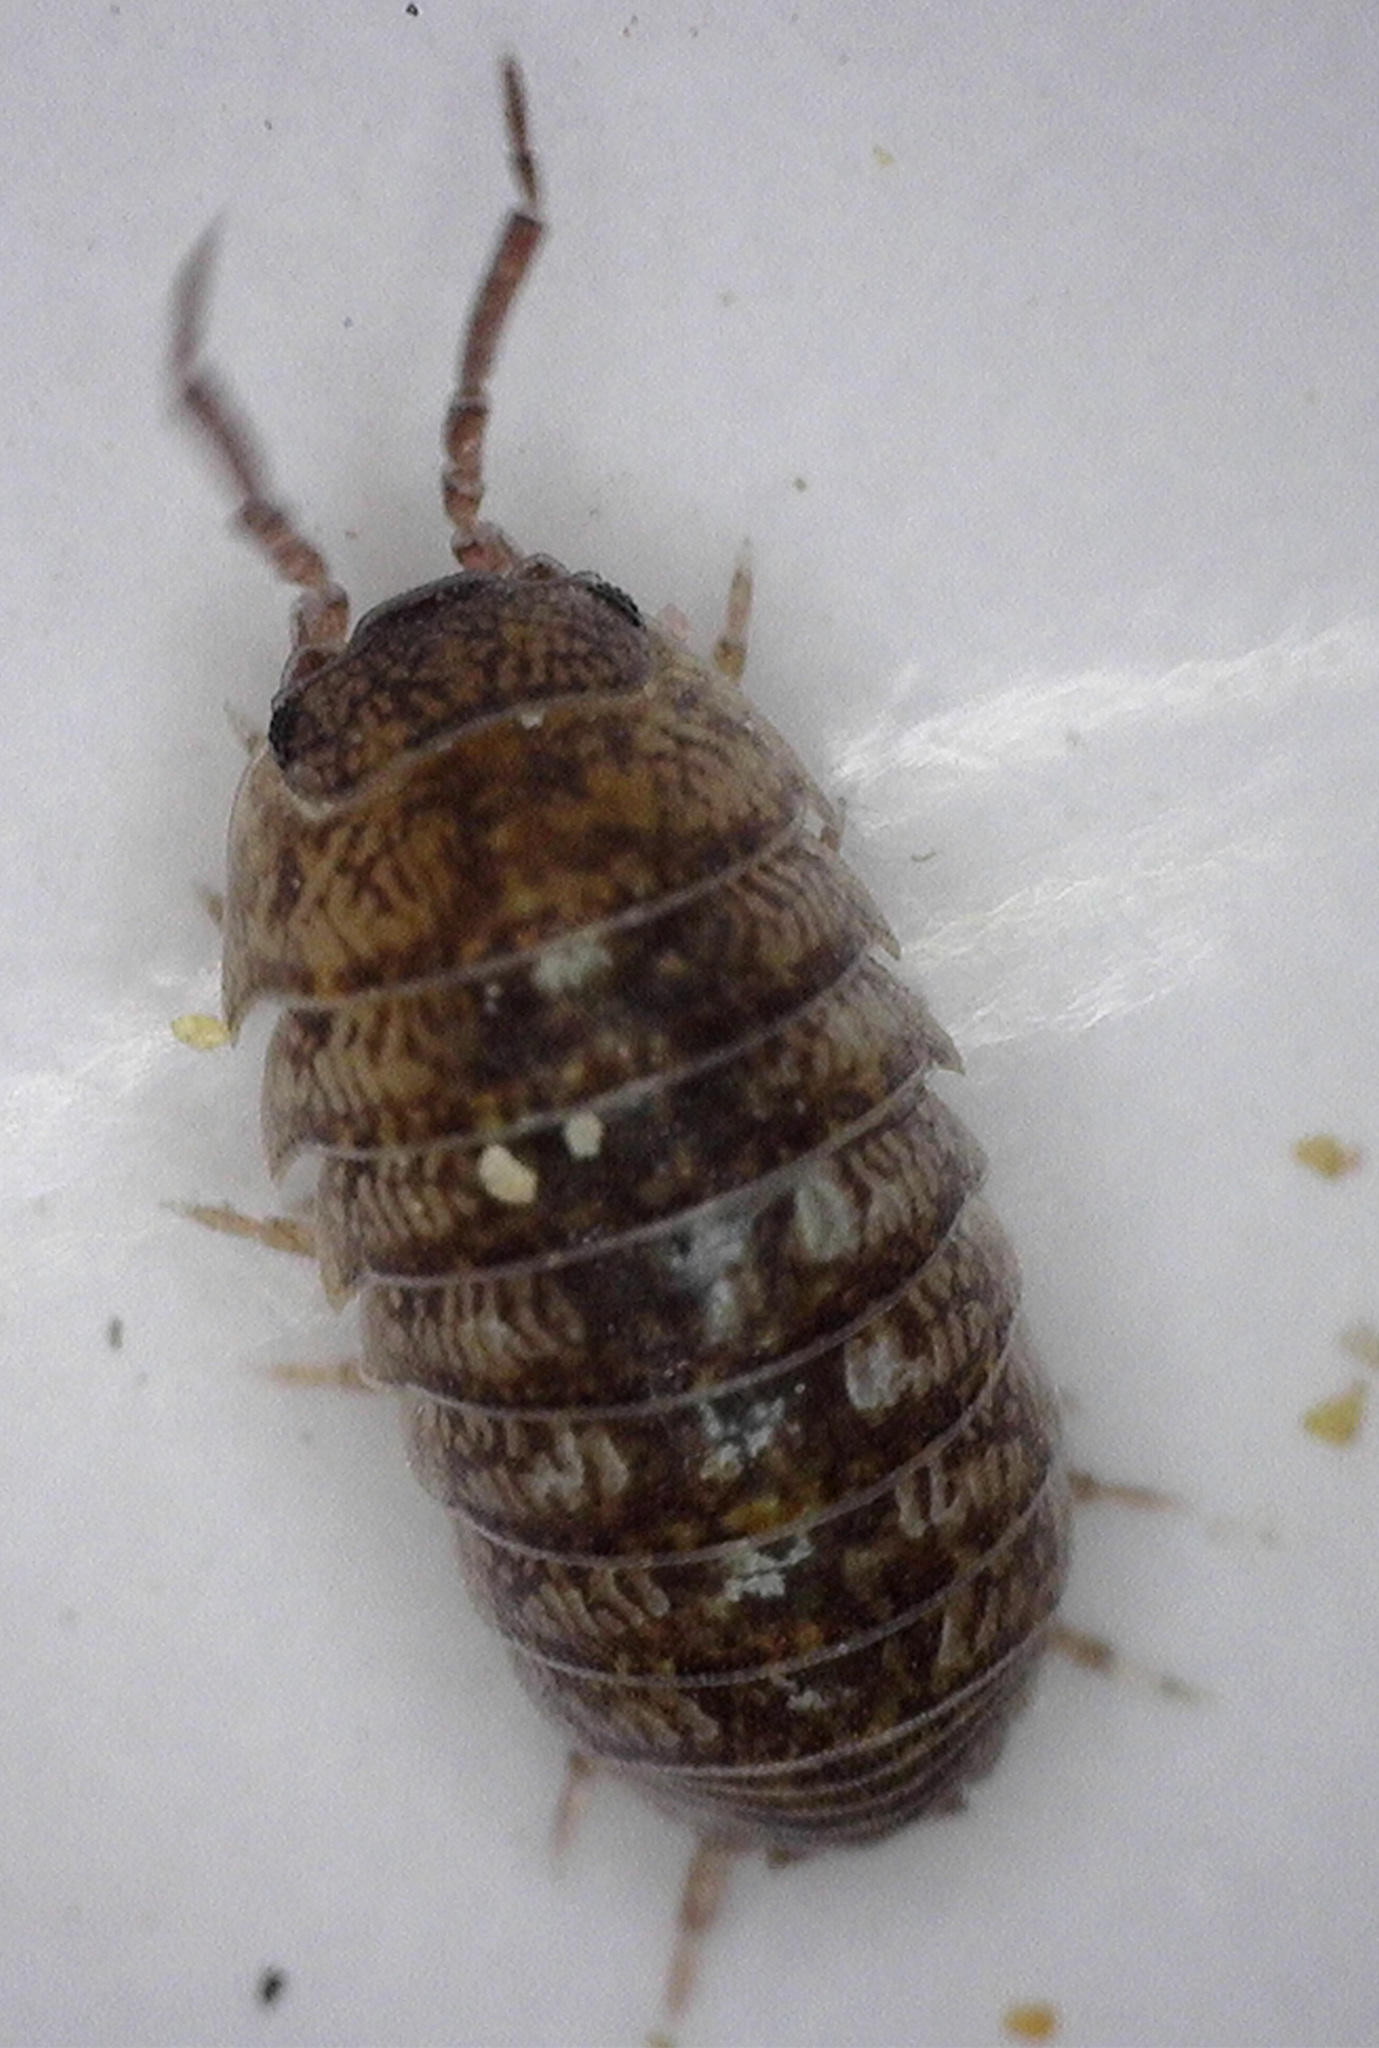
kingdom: Animalia
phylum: Arthropoda
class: Malacostraca
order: Isopoda
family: Armadillidiidae
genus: Armadillidium
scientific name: Armadillidium vulgare
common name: Common pill woodlouse
